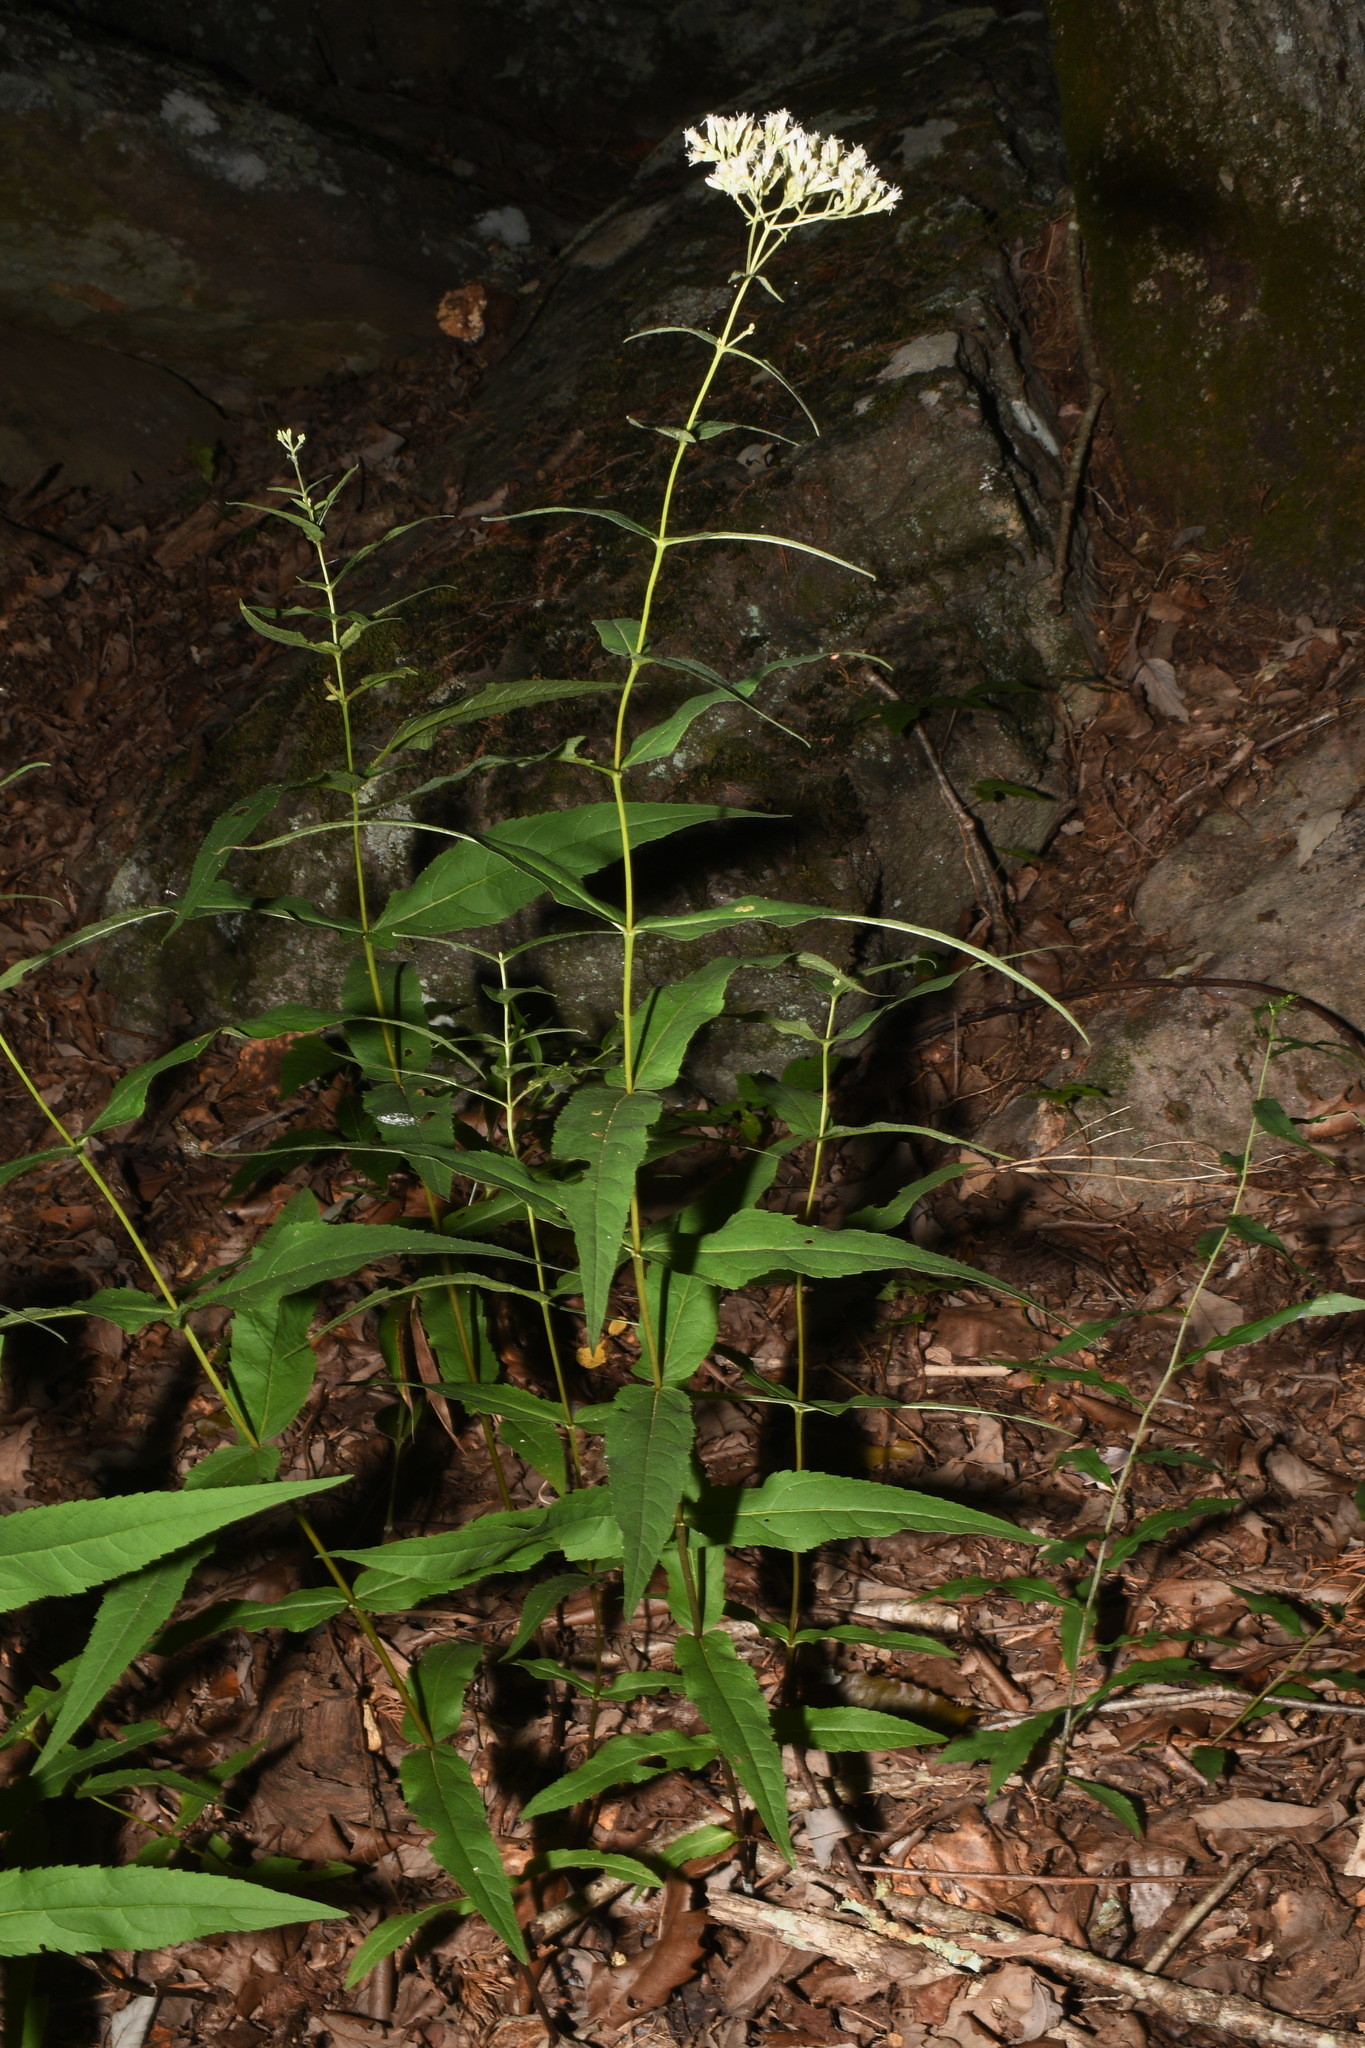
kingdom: Plantae
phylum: Tracheophyta
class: Magnoliopsida
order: Asterales
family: Asteraceae
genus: Eupatorium
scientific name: Eupatorium sessilifolium
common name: Upland boneset
